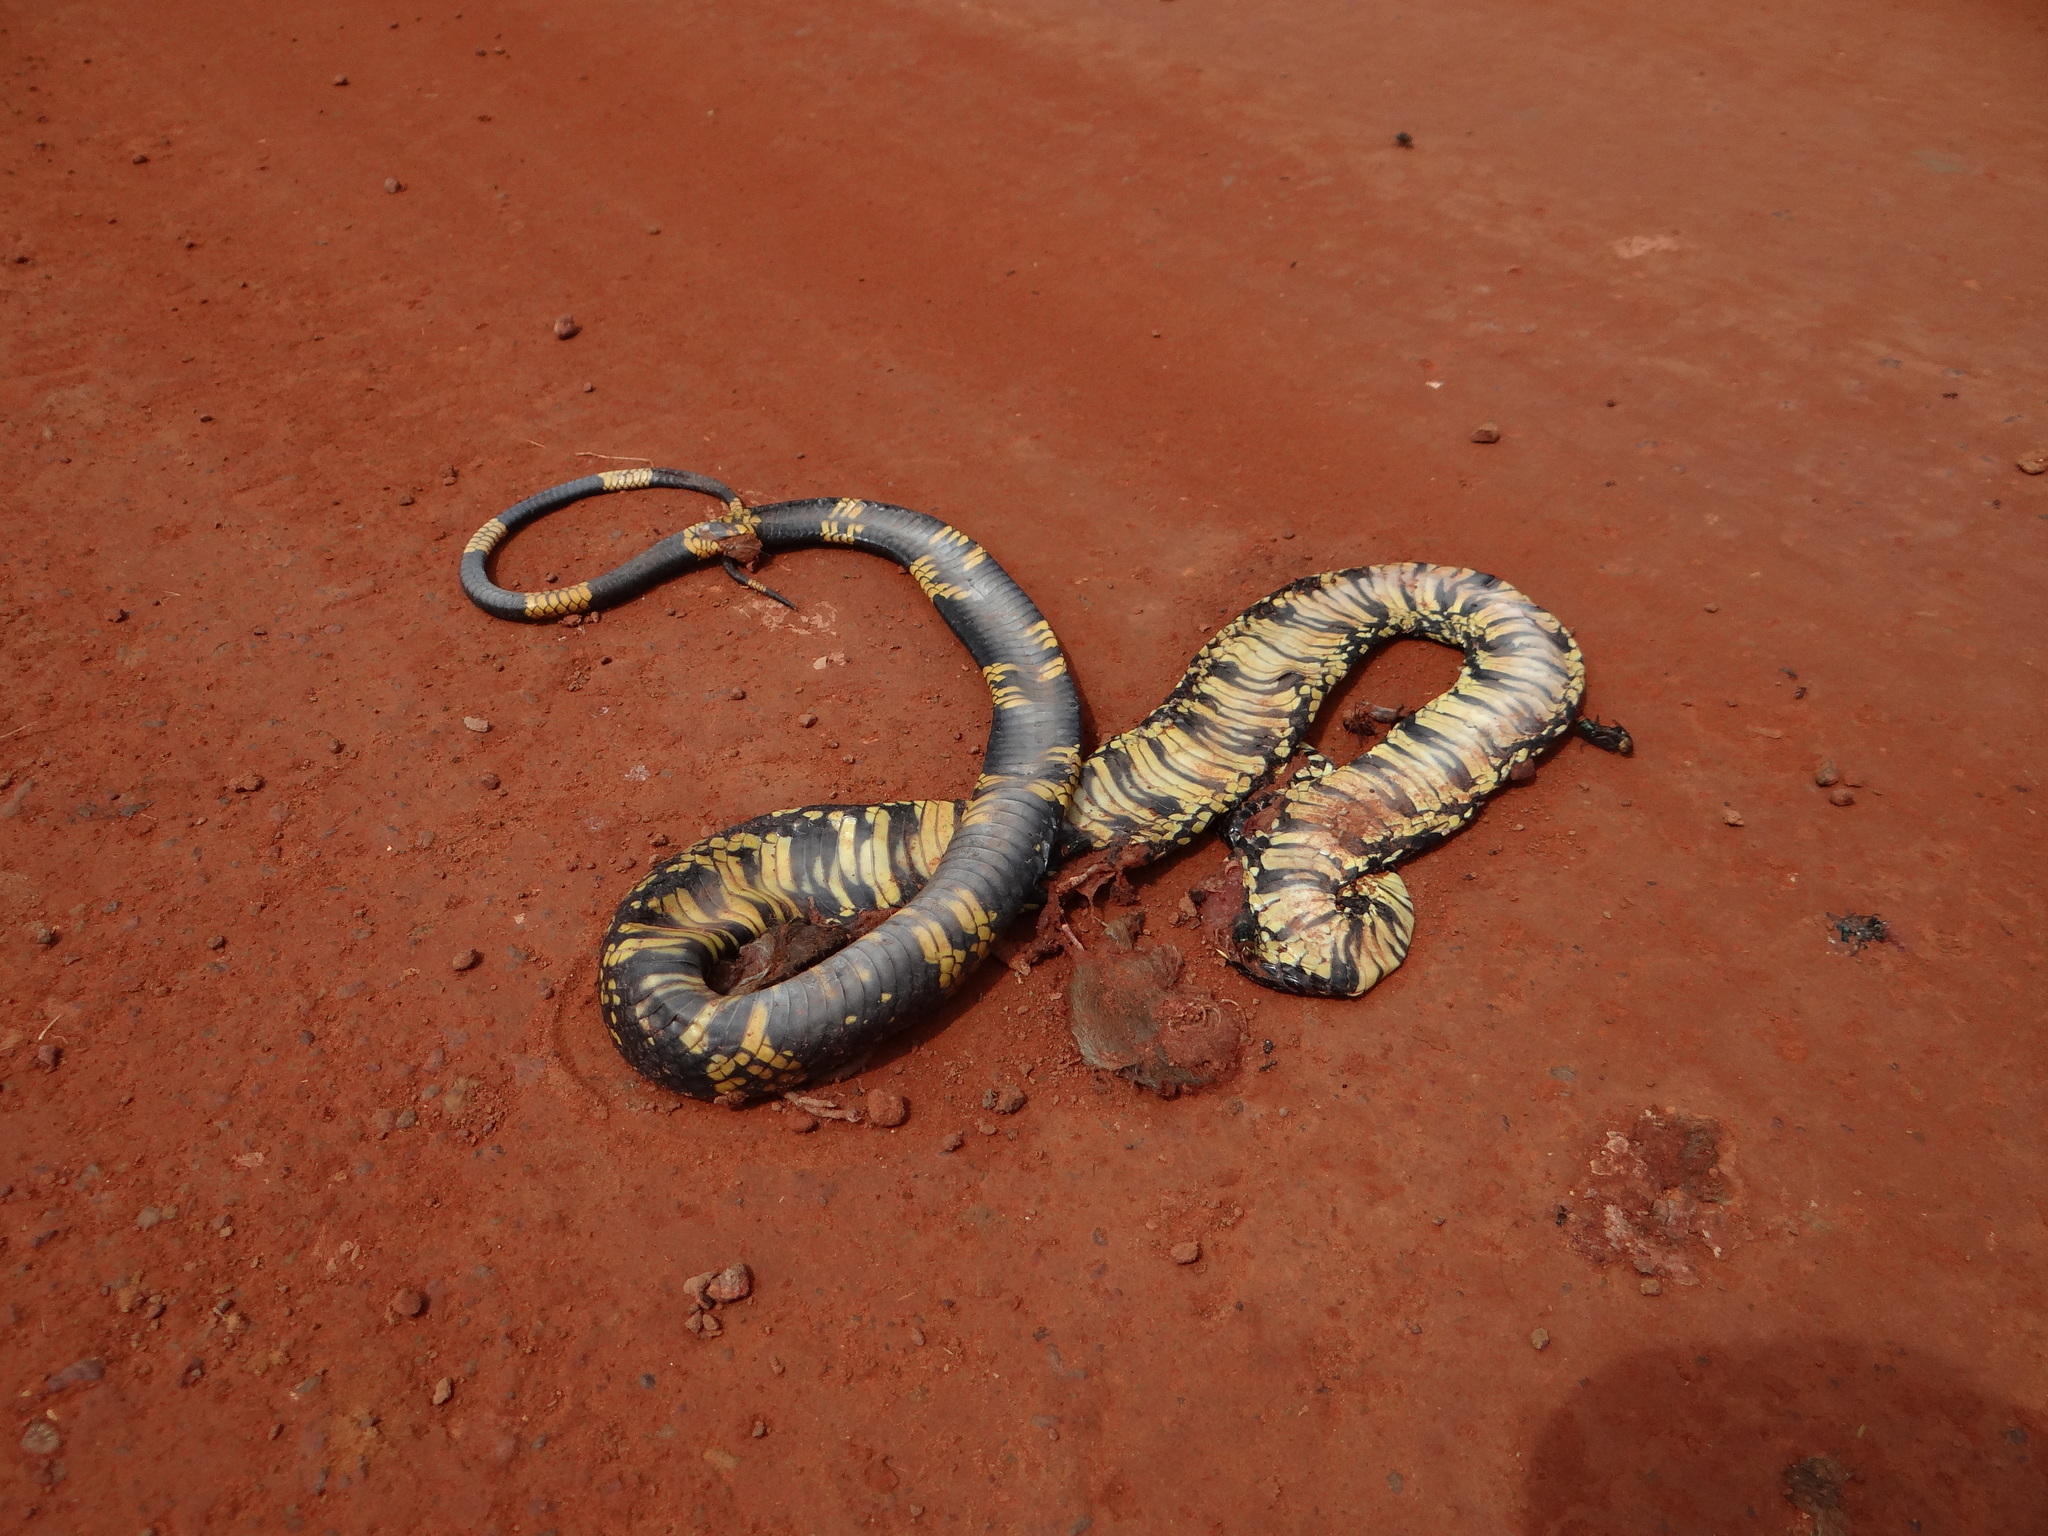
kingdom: Animalia
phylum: Chordata
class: Squamata
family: Colubridae
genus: Spilotes
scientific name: Spilotes pullatus
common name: Chicken snake
